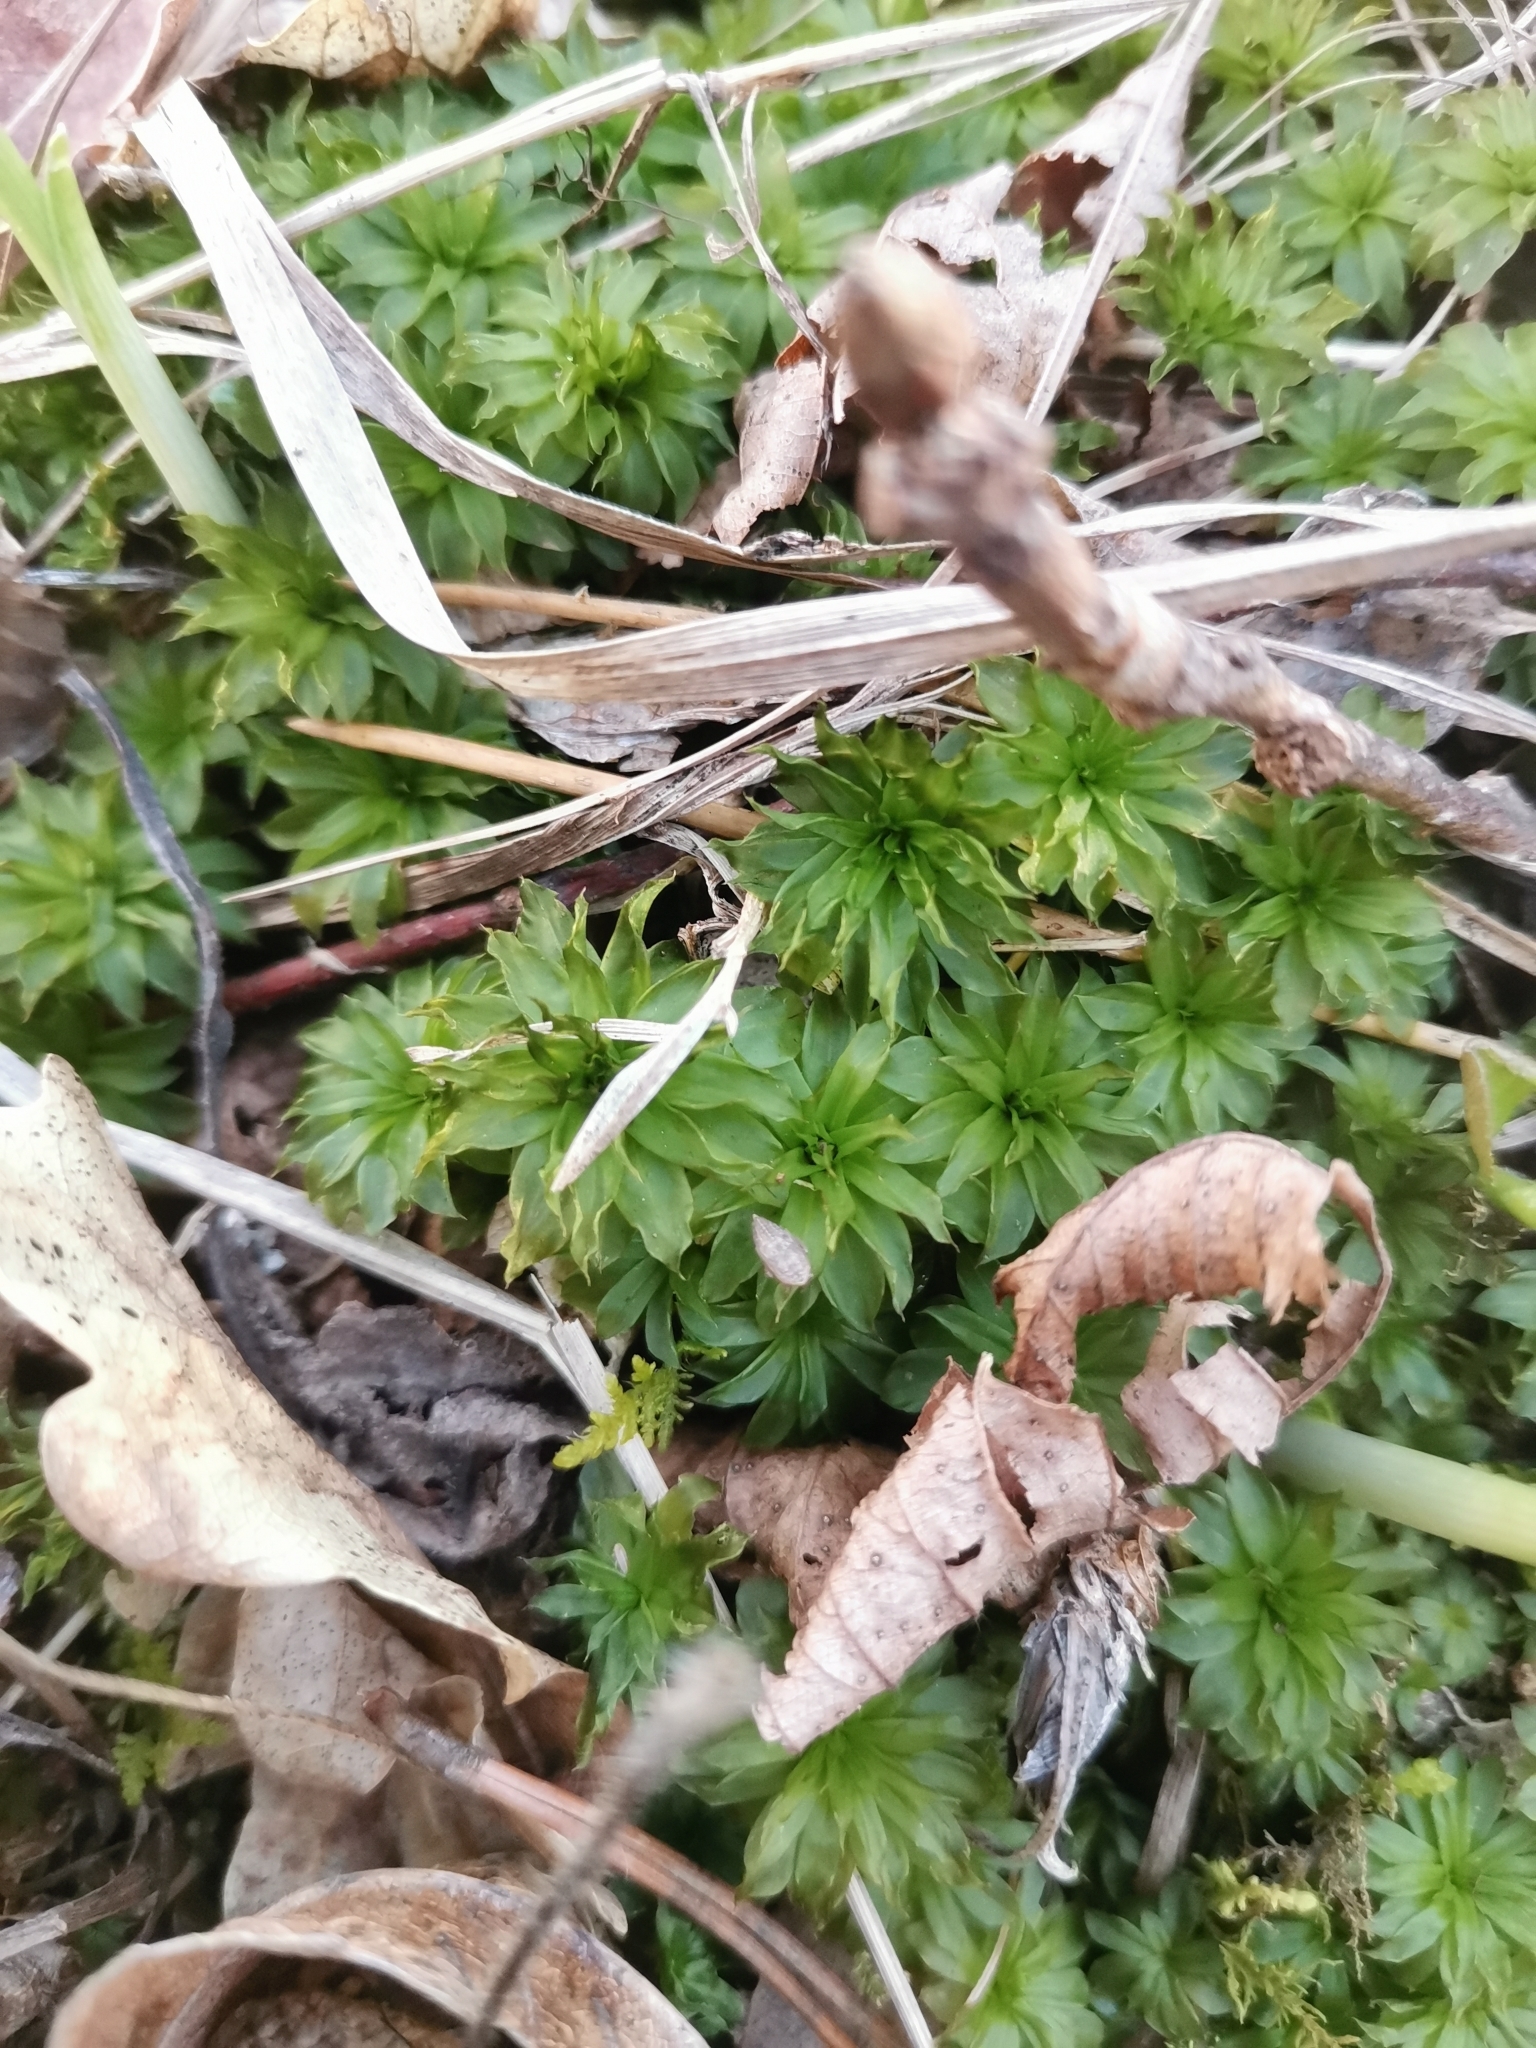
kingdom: Plantae
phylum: Bryophyta
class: Bryopsida
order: Bryales
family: Bryaceae
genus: Rhodobryum
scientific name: Rhodobryum ontariense
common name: Ontario rhodobryum moss
